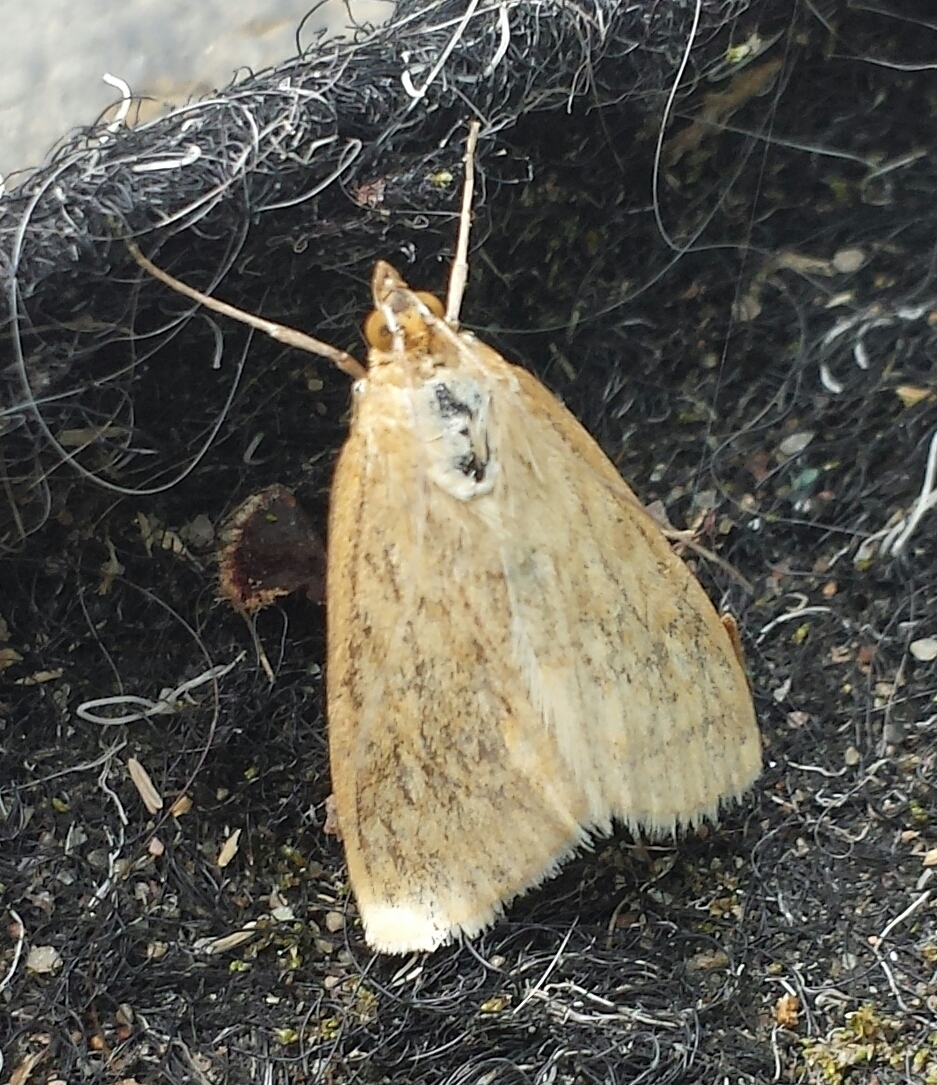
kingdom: Animalia
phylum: Arthropoda
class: Insecta
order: Lepidoptera
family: Crambidae
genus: Evergestis
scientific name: Evergestis pallidata
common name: Chequered pearl
